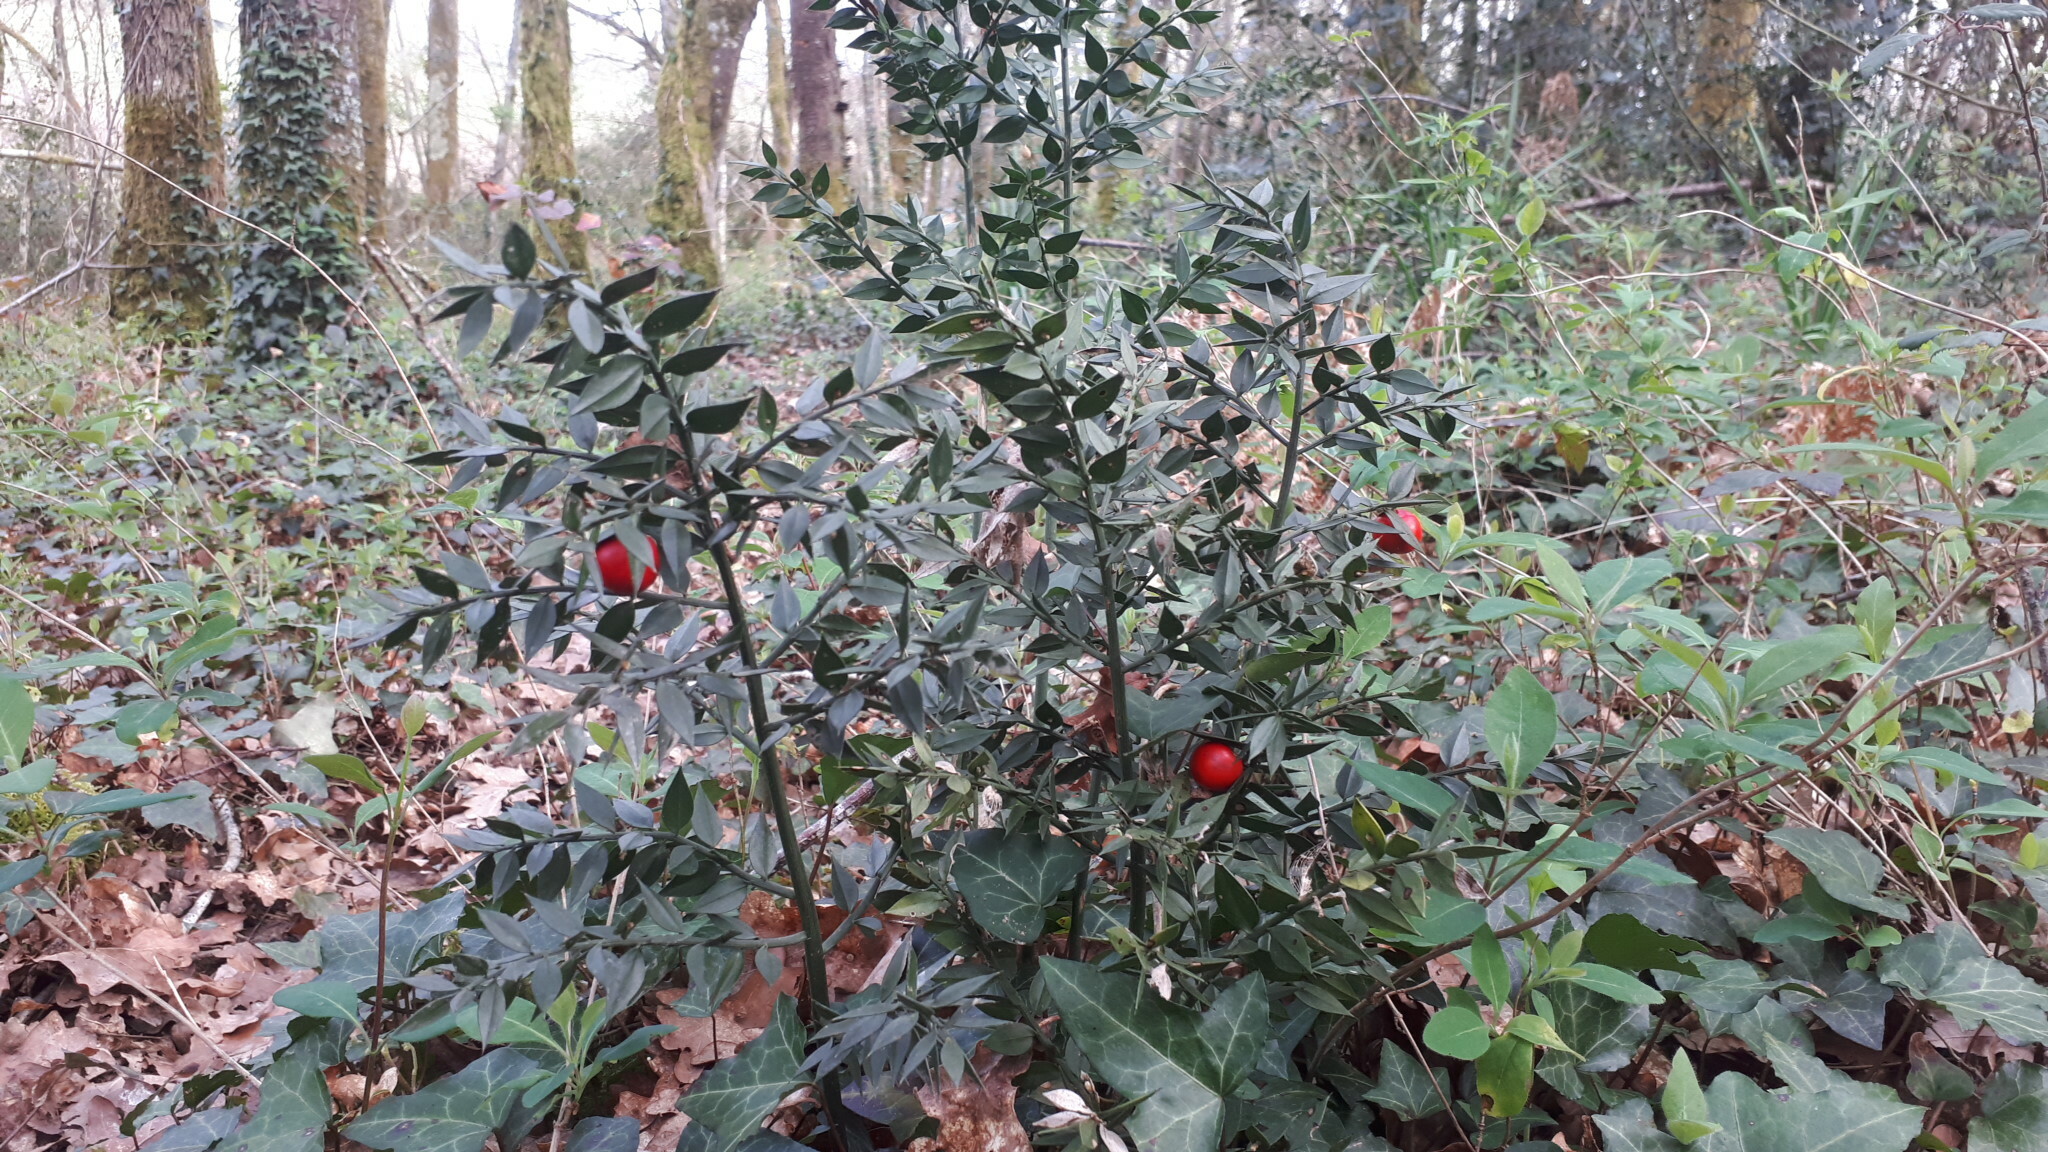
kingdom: Plantae
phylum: Tracheophyta
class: Liliopsida
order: Asparagales
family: Asparagaceae
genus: Ruscus
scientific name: Ruscus aculeatus
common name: Butcher's-broom
